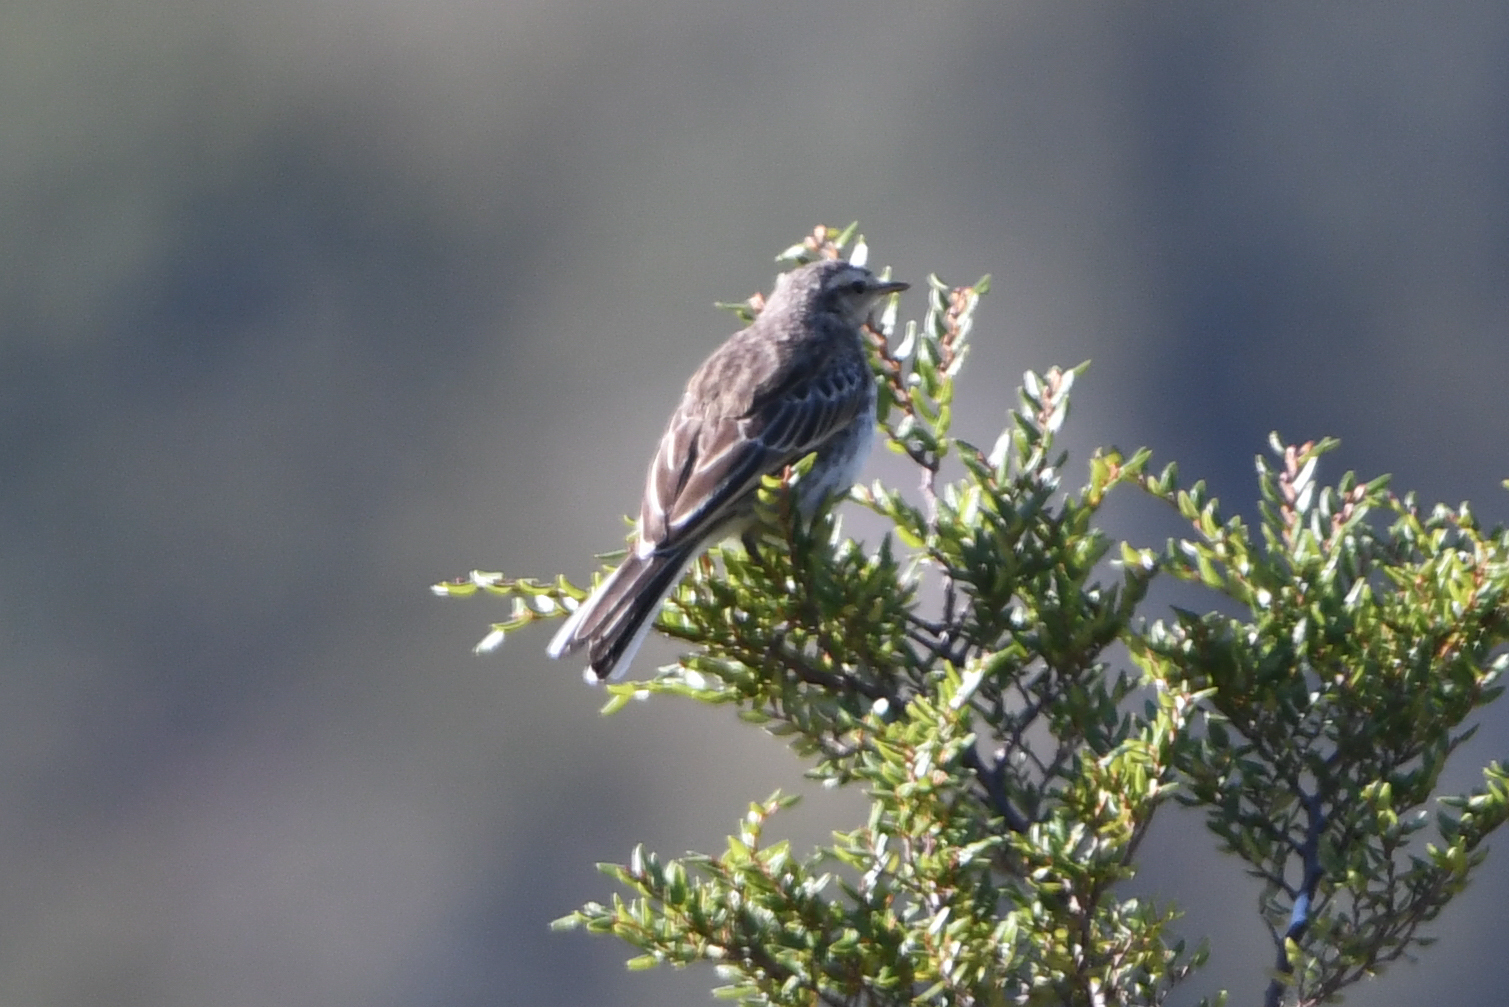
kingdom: Animalia
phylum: Chordata
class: Aves
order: Passeriformes
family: Motacillidae
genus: Anthus
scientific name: Anthus novaeseelandiae
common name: New zealand pipit
